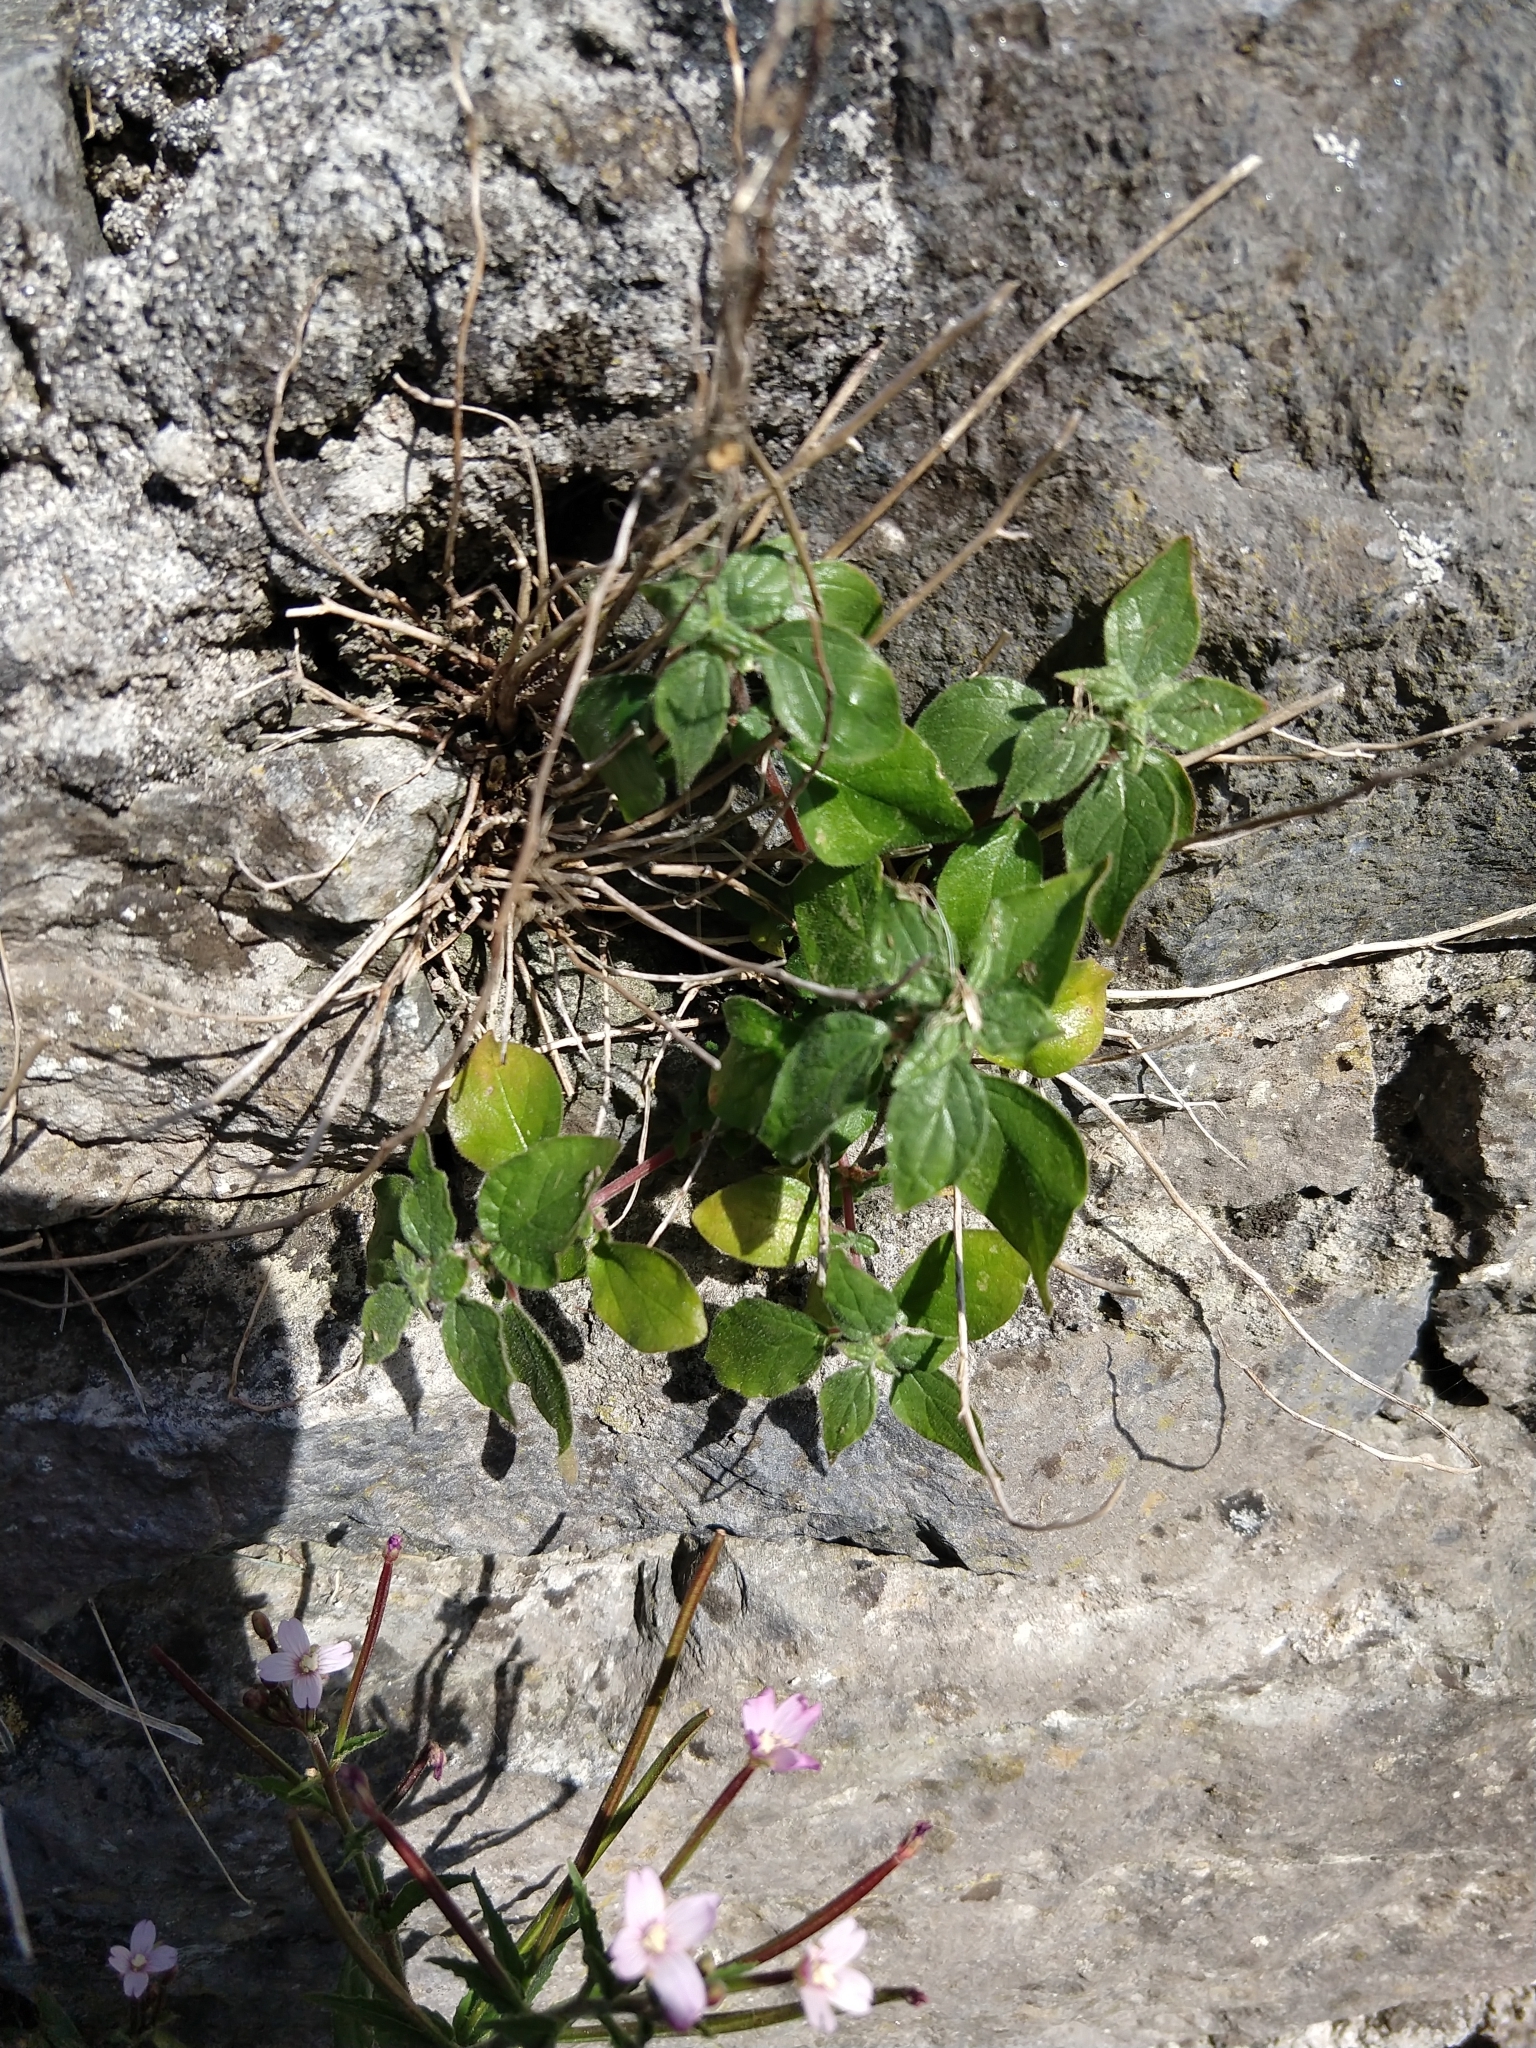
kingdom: Plantae
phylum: Tracheophyta
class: Magnoliopsida
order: Rosales
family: Urticaceae
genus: Parietaria
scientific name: Parietaria judaica
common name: Pellitory-of-the-wall
